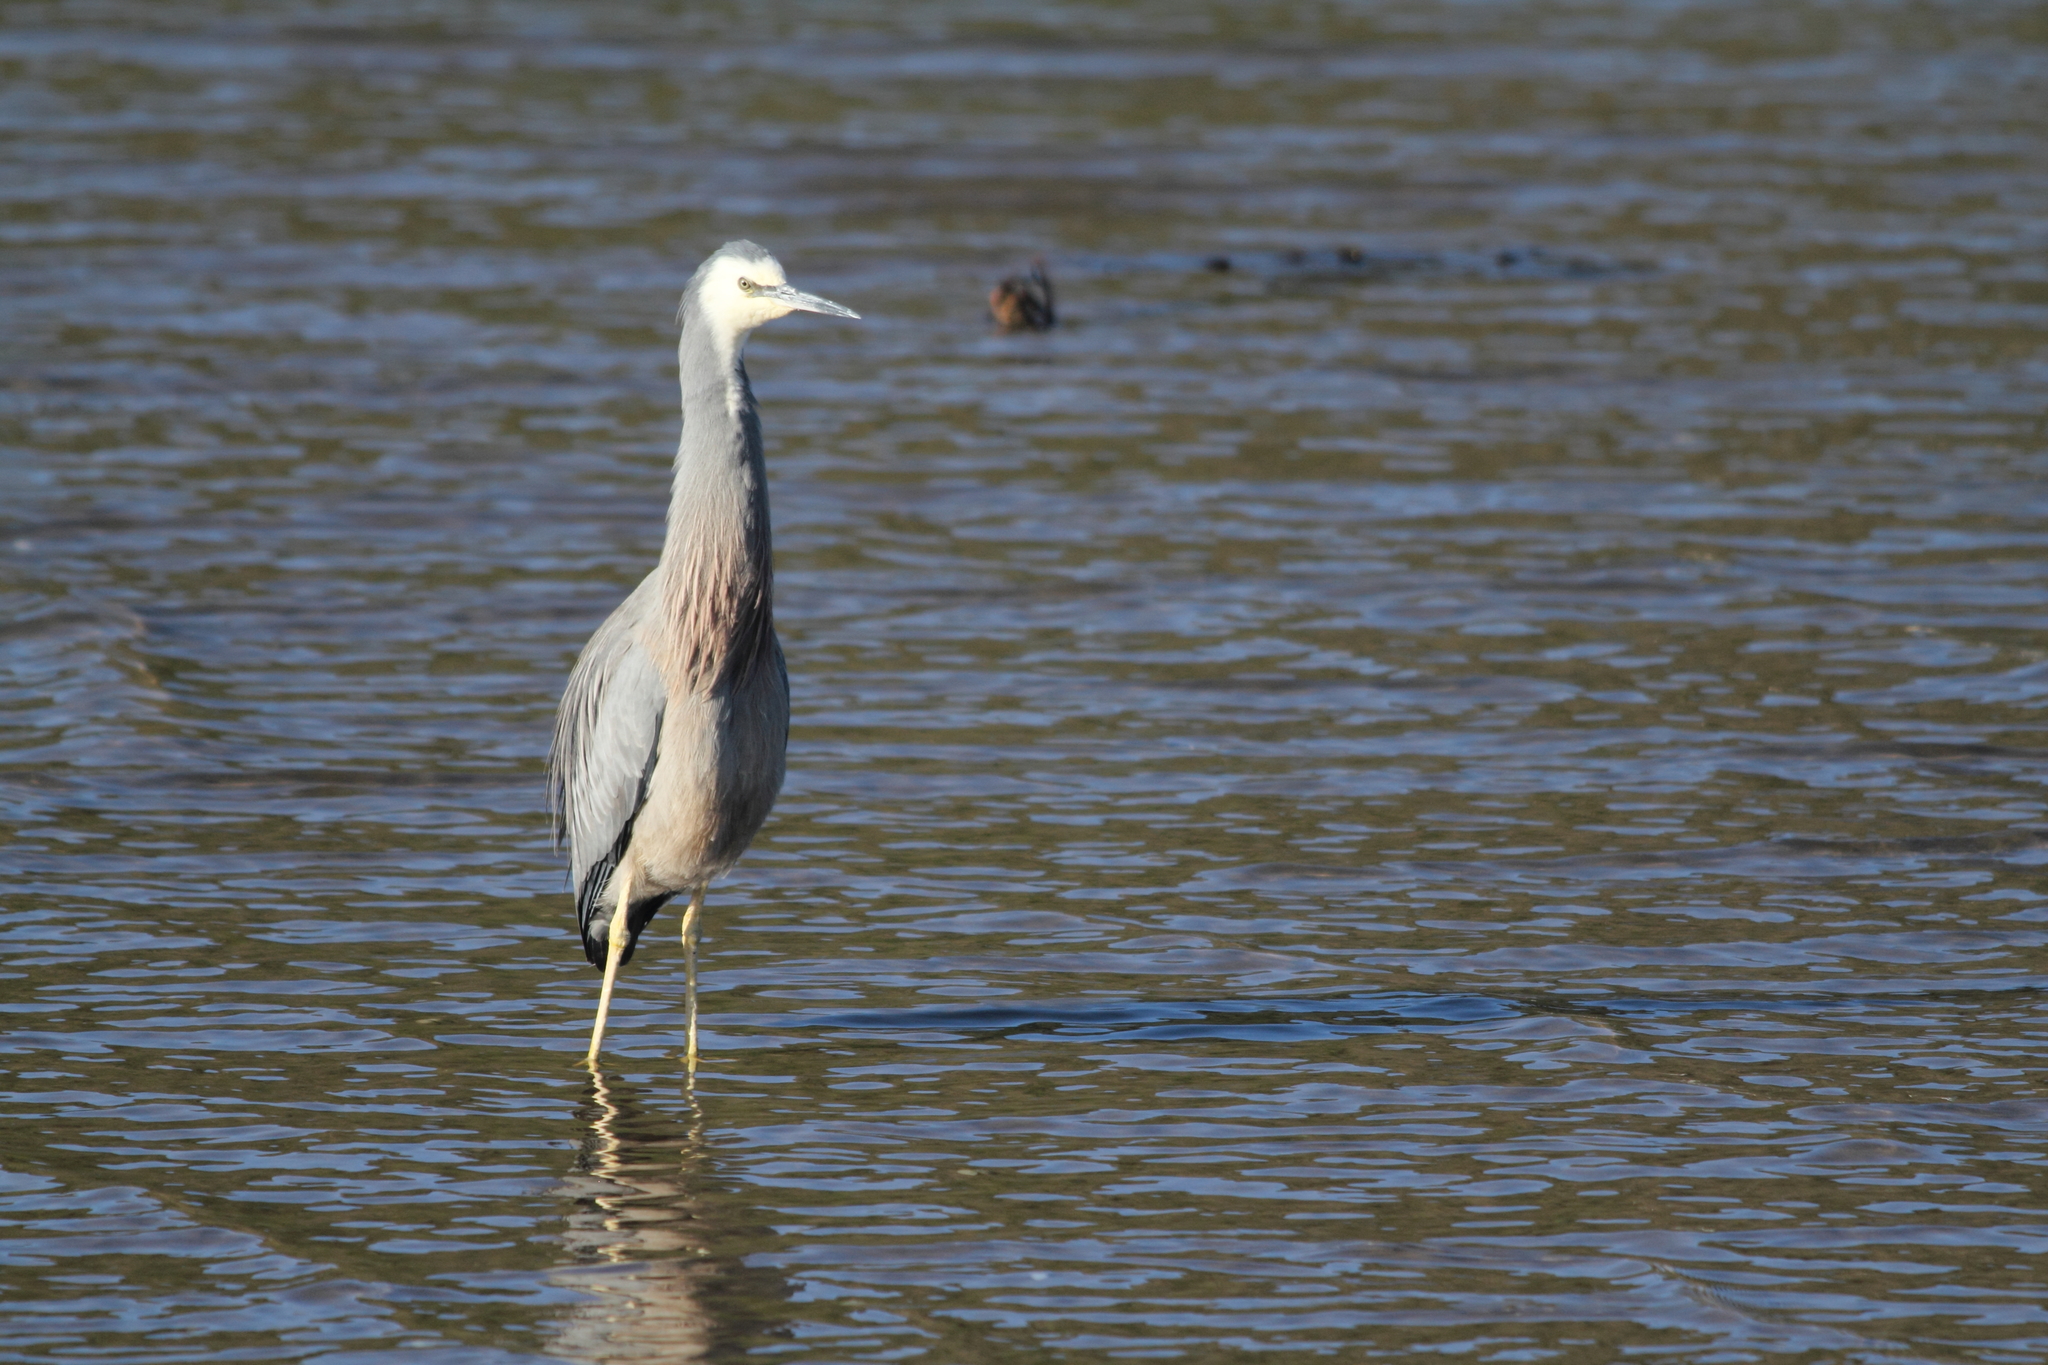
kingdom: Animalia
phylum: Chordata
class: Aves
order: Pelecaniformes
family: Ardeidae
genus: Egretta
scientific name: Egretta novaehollandiae
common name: White-faced heron
